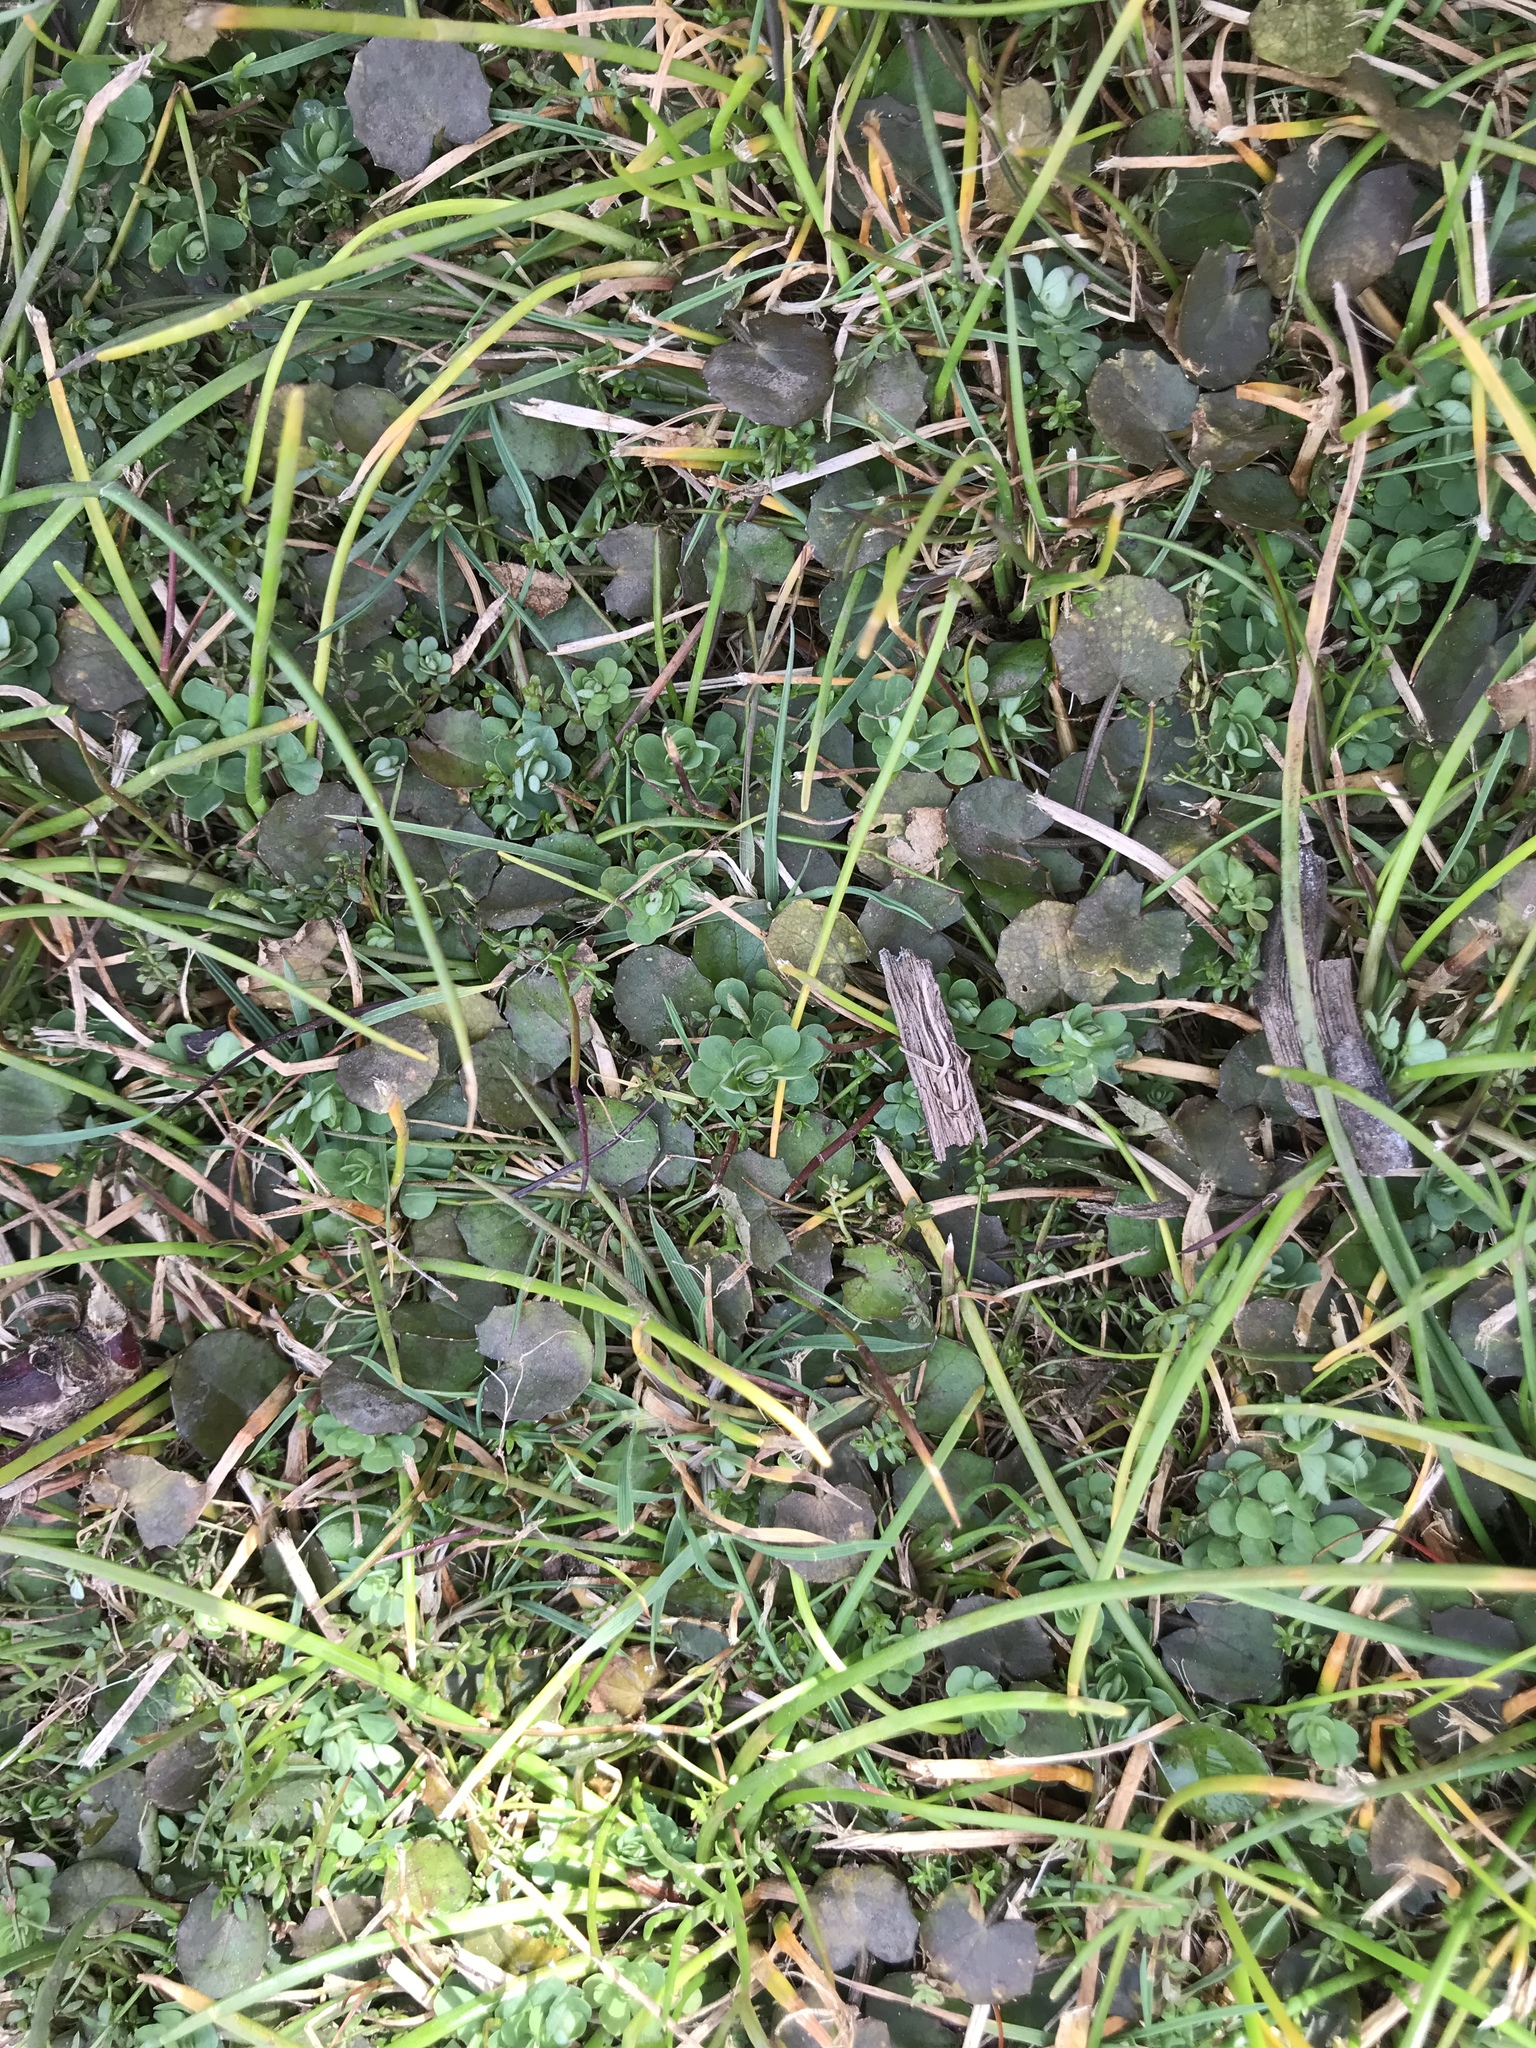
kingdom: Plantae
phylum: Tracheophyta
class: Magnoliopsida
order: Apiales
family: Apiaceae
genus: Centella
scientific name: Centella uniflora
